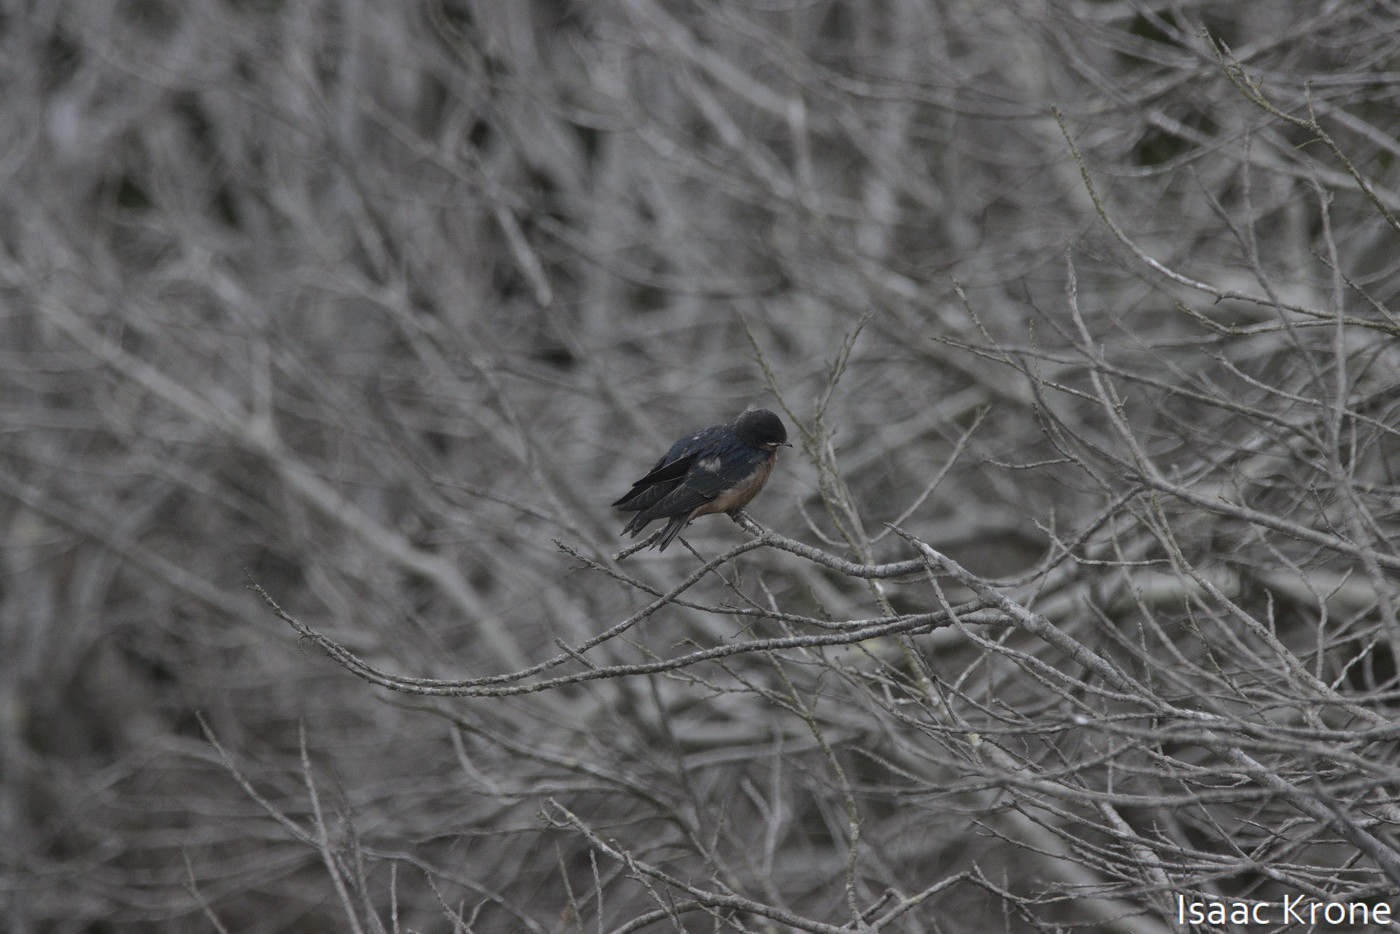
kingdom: Animalia
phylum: Chordata
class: Aves
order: Passeriformes
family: Hirundinidae
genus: Hirundo
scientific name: Hirundo rustica
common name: Barn swallow
